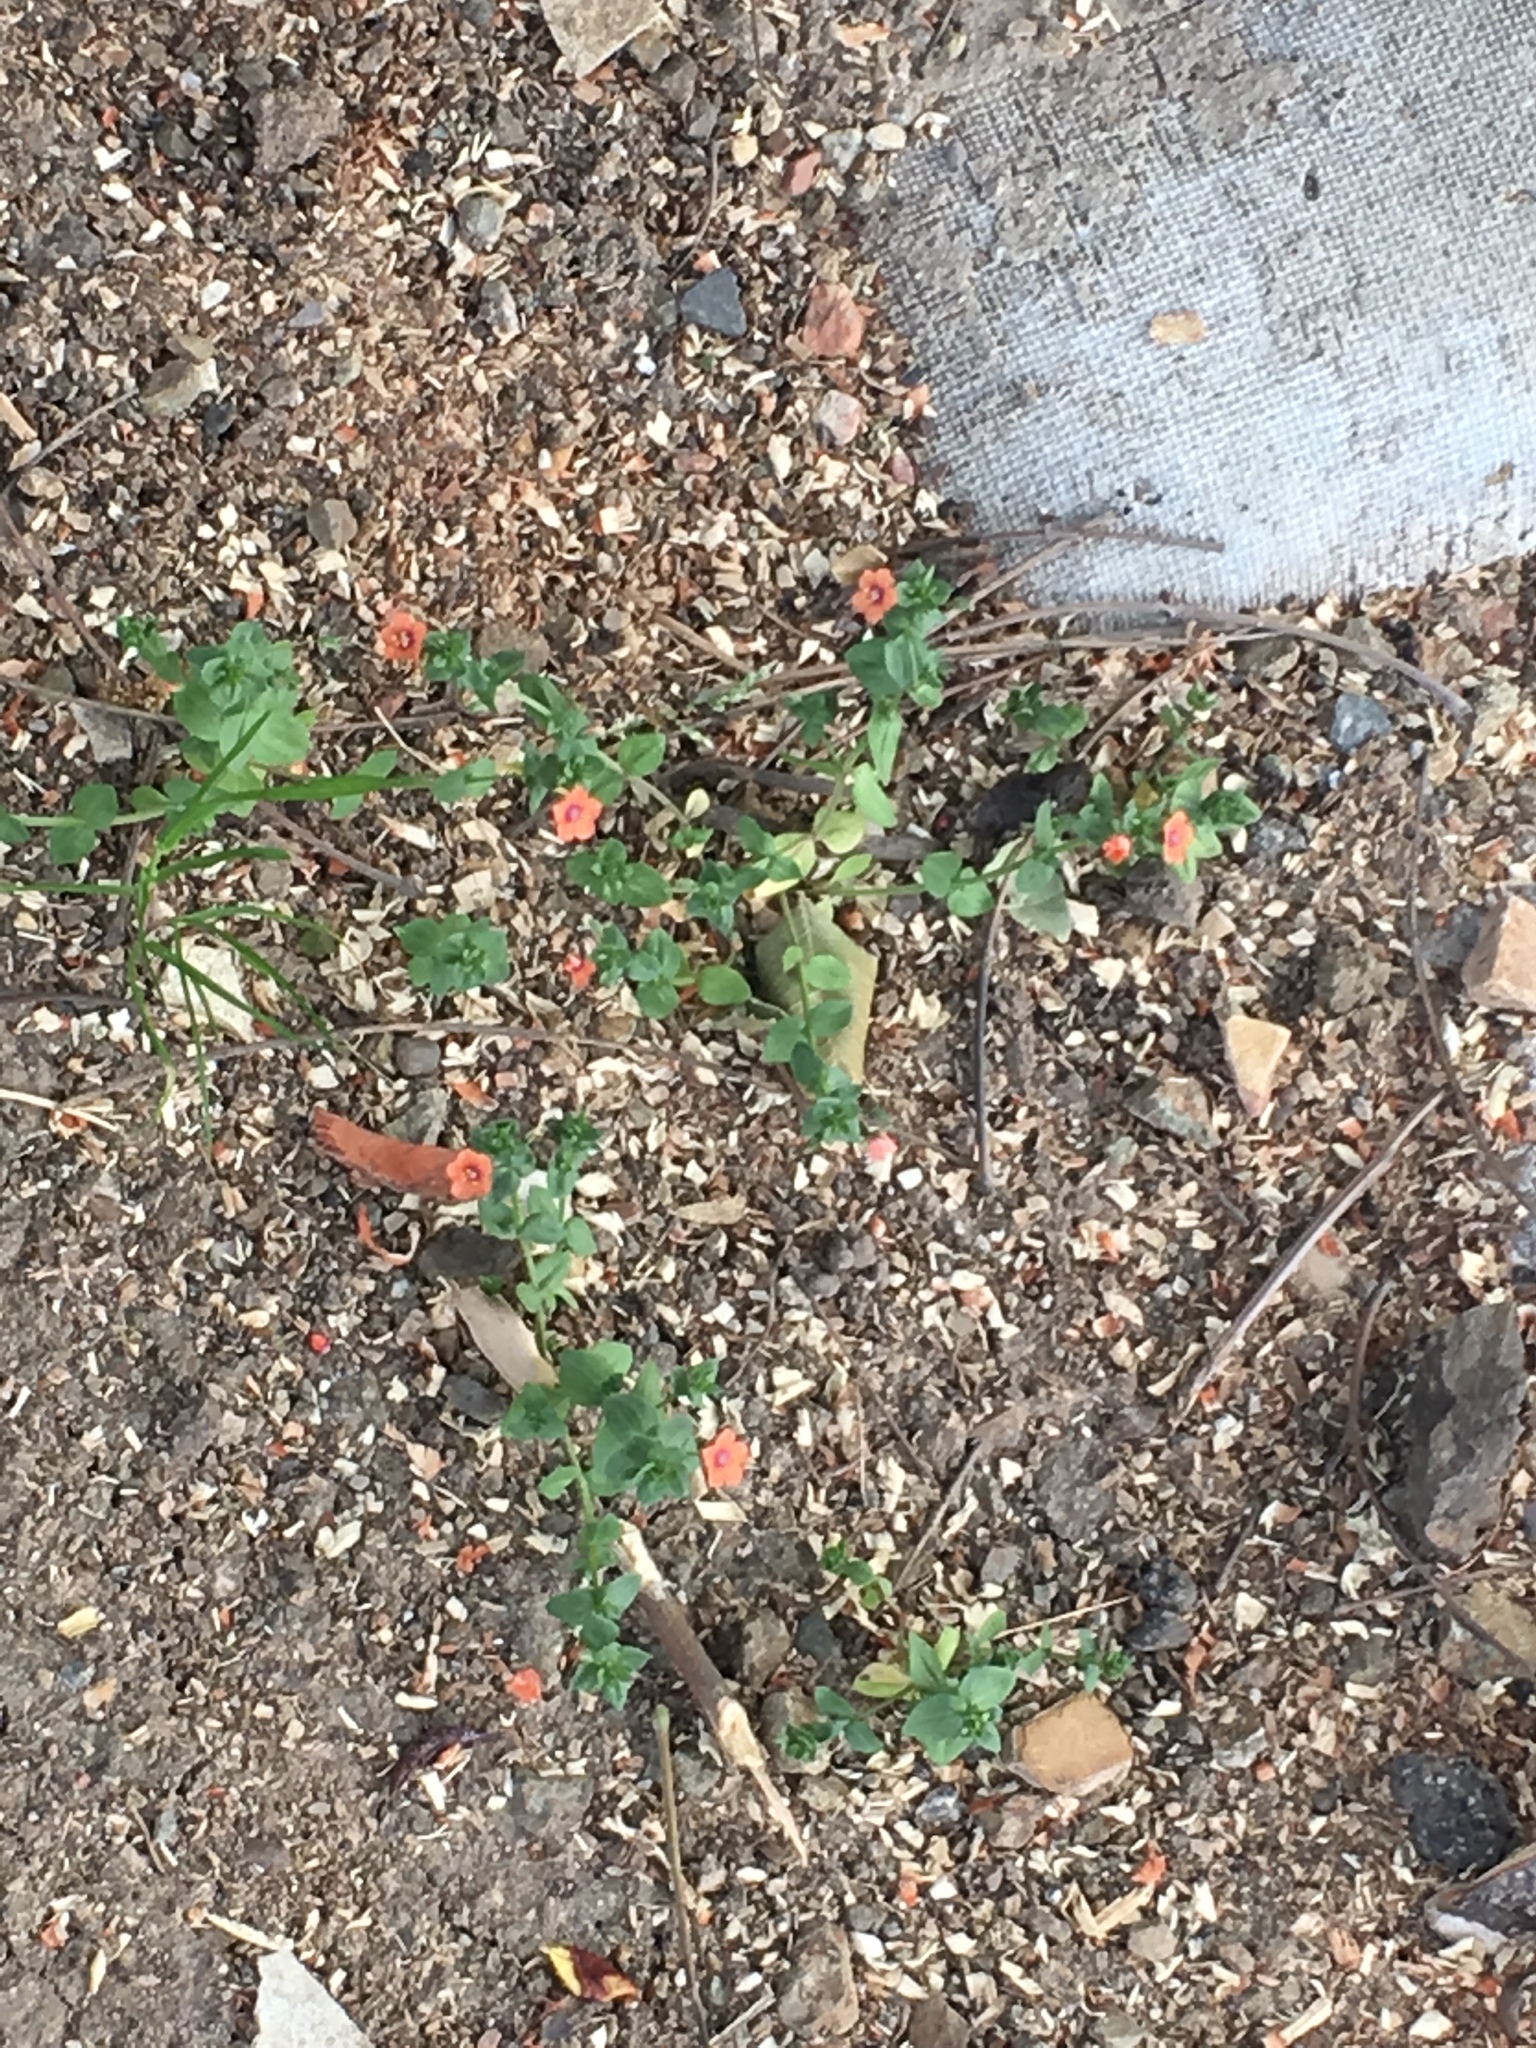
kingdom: Plantae
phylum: Tracheophyta
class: Magnoliopsida
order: Ericales
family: Primulaceae
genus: Lysimachia
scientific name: Lysimachia arvensis
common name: Scarlet pimpernel
